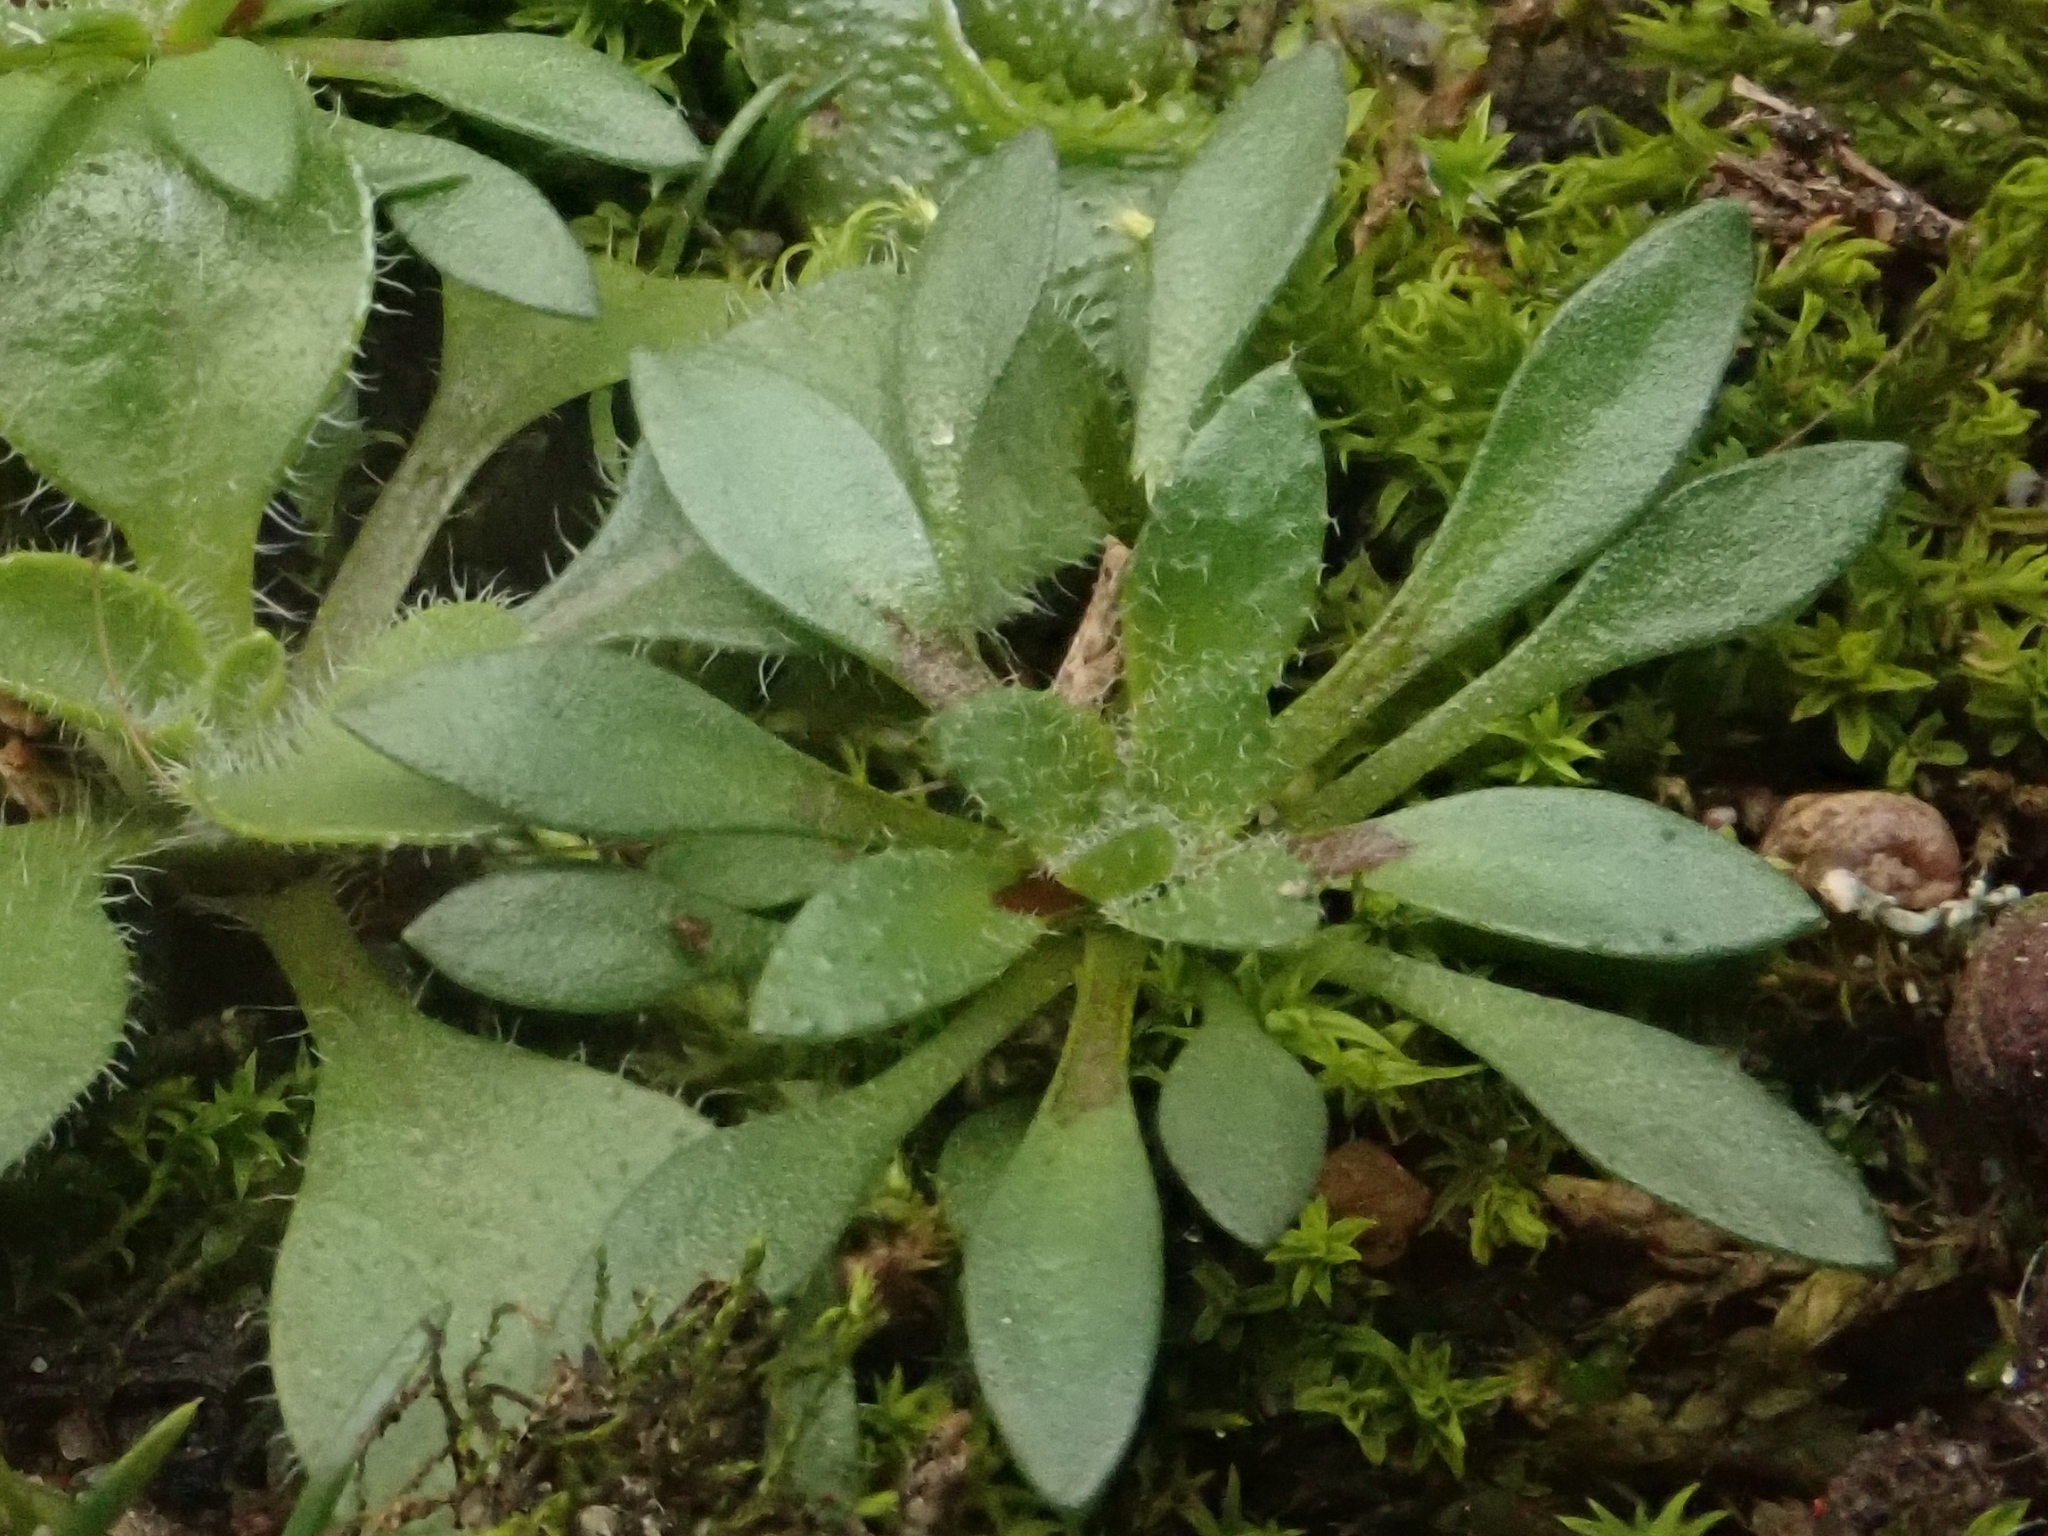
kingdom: Plantae
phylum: Tracheophyta
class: Magnoliopsida
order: Brassicales
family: Brassicaceae
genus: Draba
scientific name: Draba verna
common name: Spring draba
